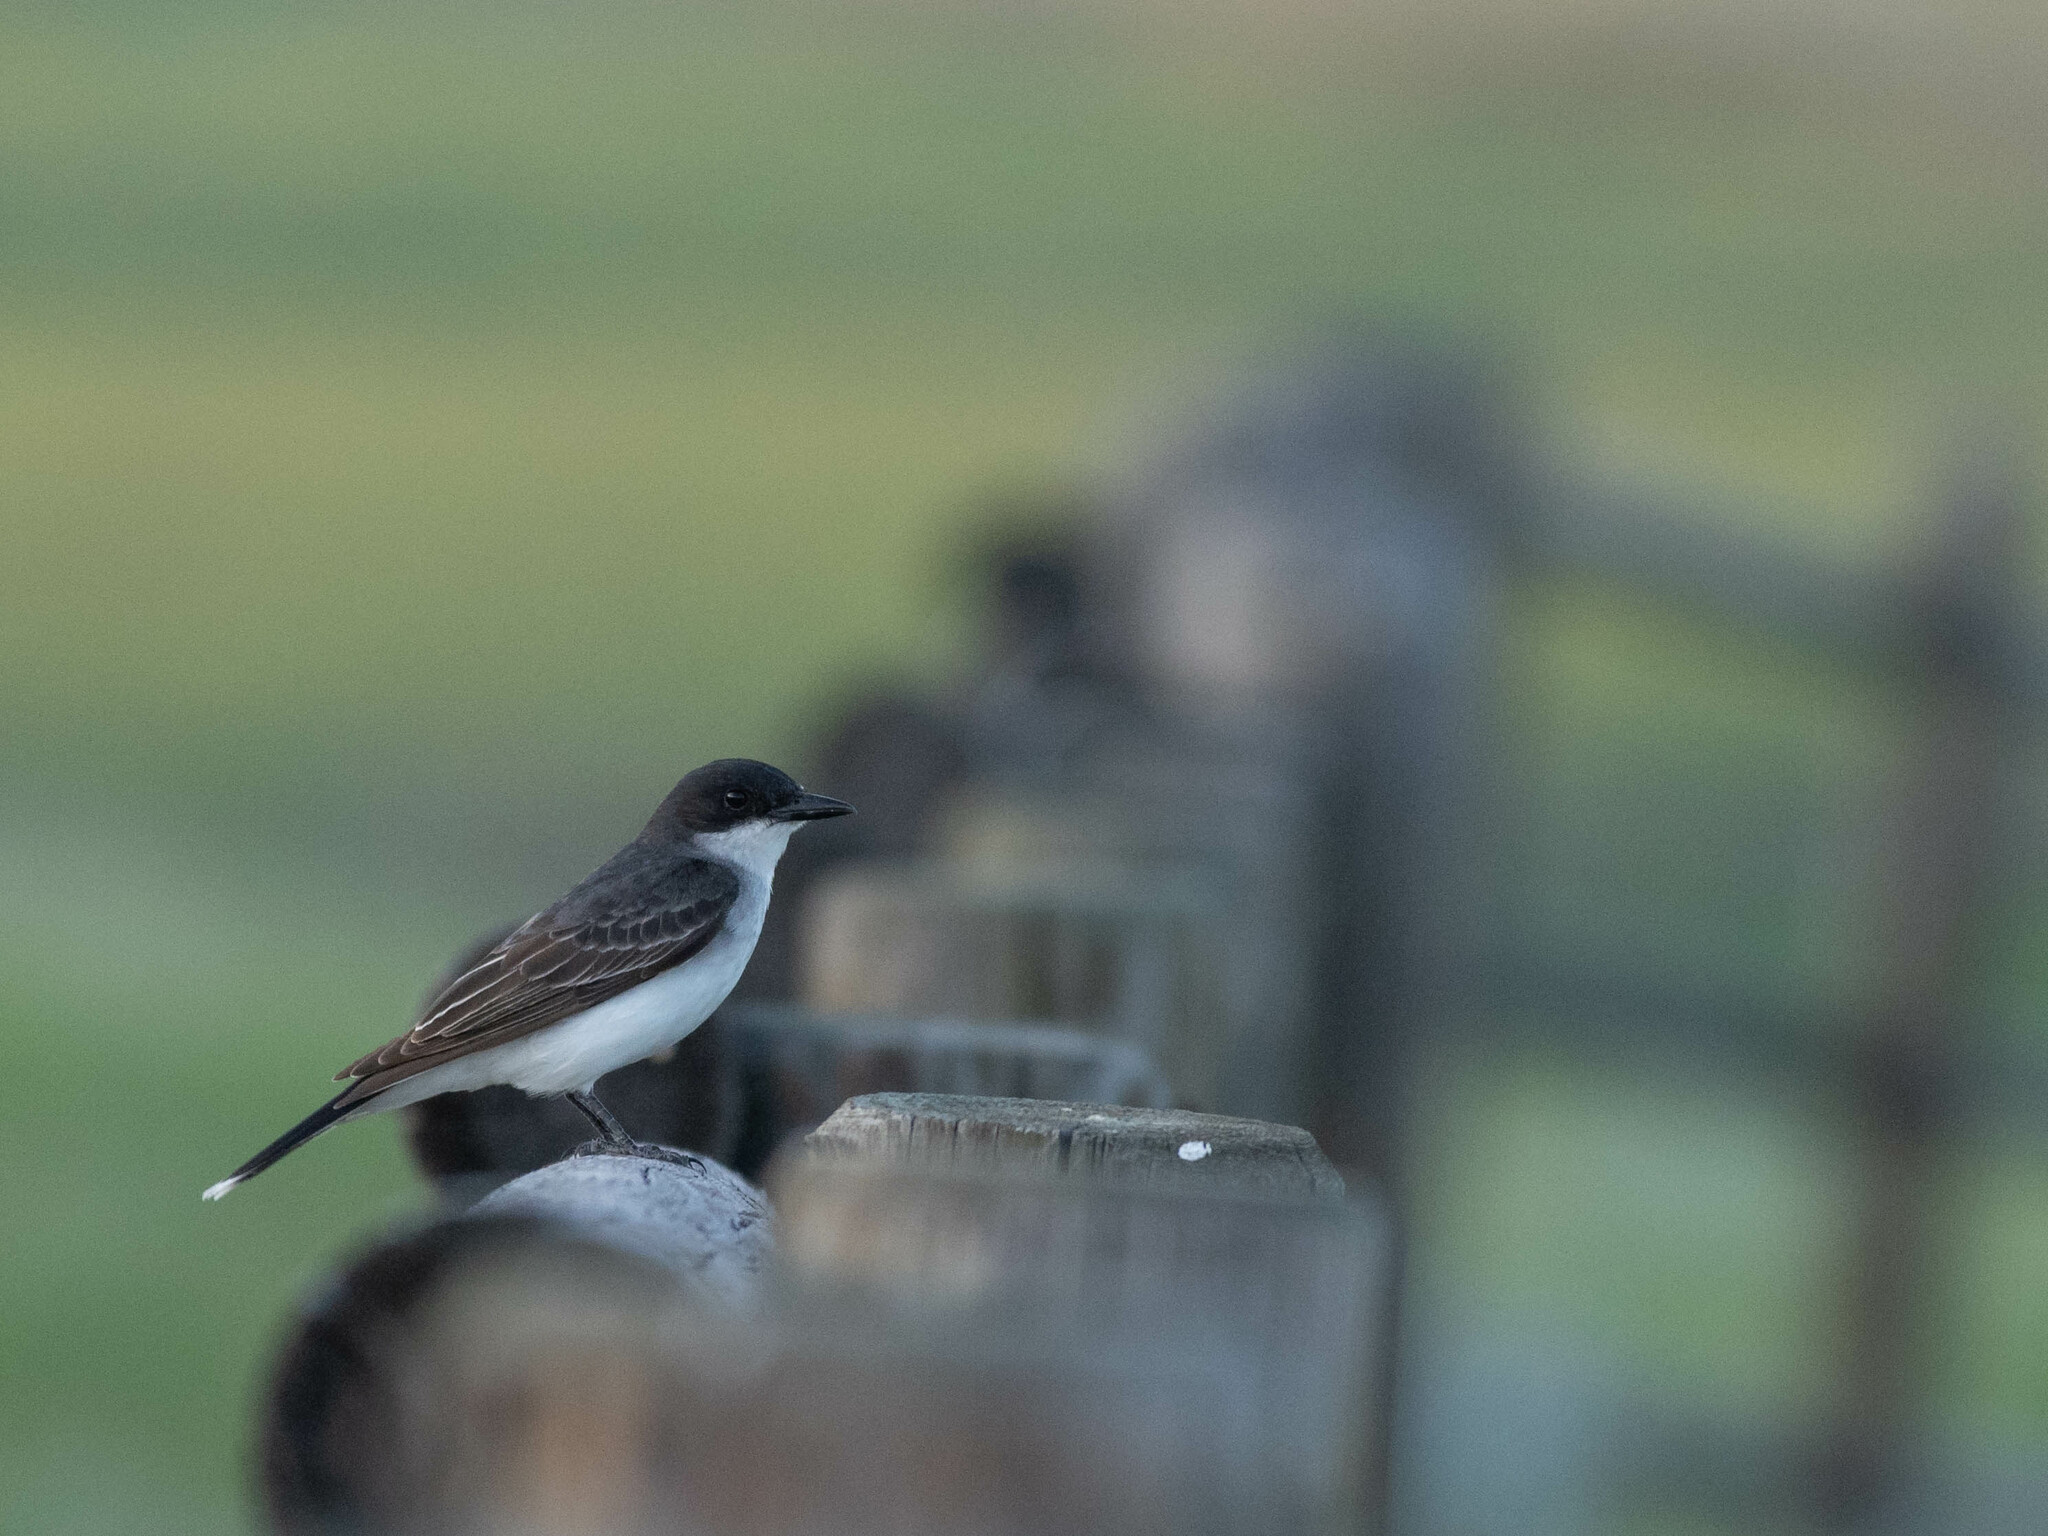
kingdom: Animalia
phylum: Chordata
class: Aves
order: Passeriformes
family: Tyrannidae
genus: Tyrannus
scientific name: Tyrannus tyrannus
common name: Eastern kingbird
